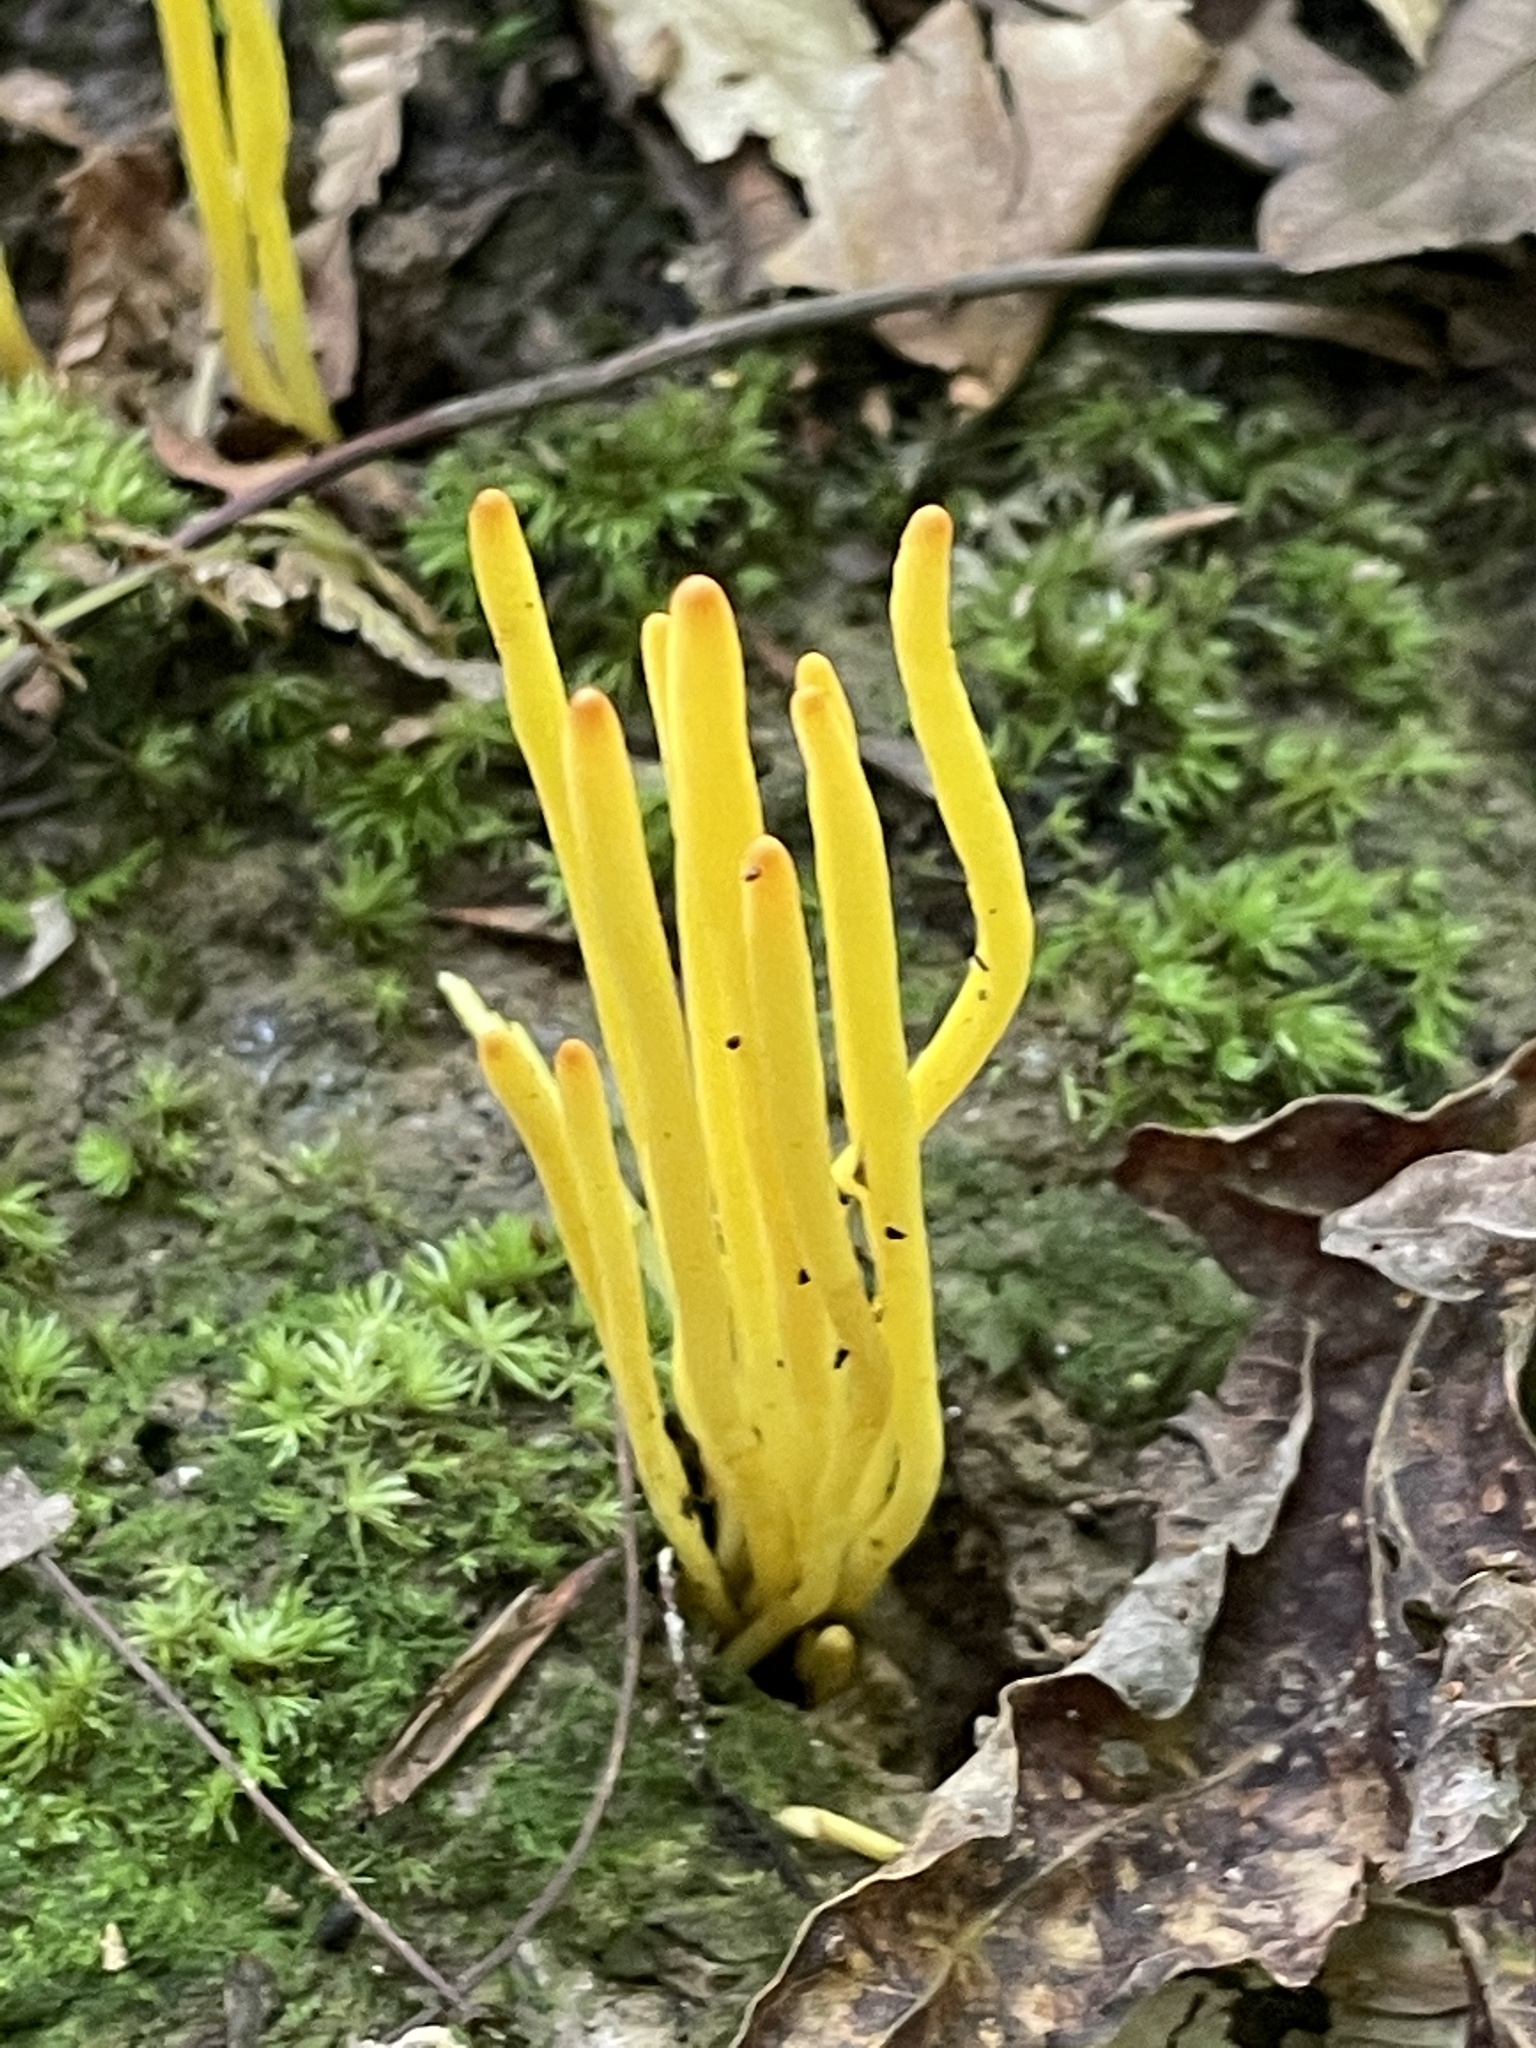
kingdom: Fungi
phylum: Basidiomycota
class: Agaricomycetes
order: Agaricales
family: Clavariaceae
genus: Clavulinopsis
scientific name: Clavulinopsis fusiformis
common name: Golden spindles
